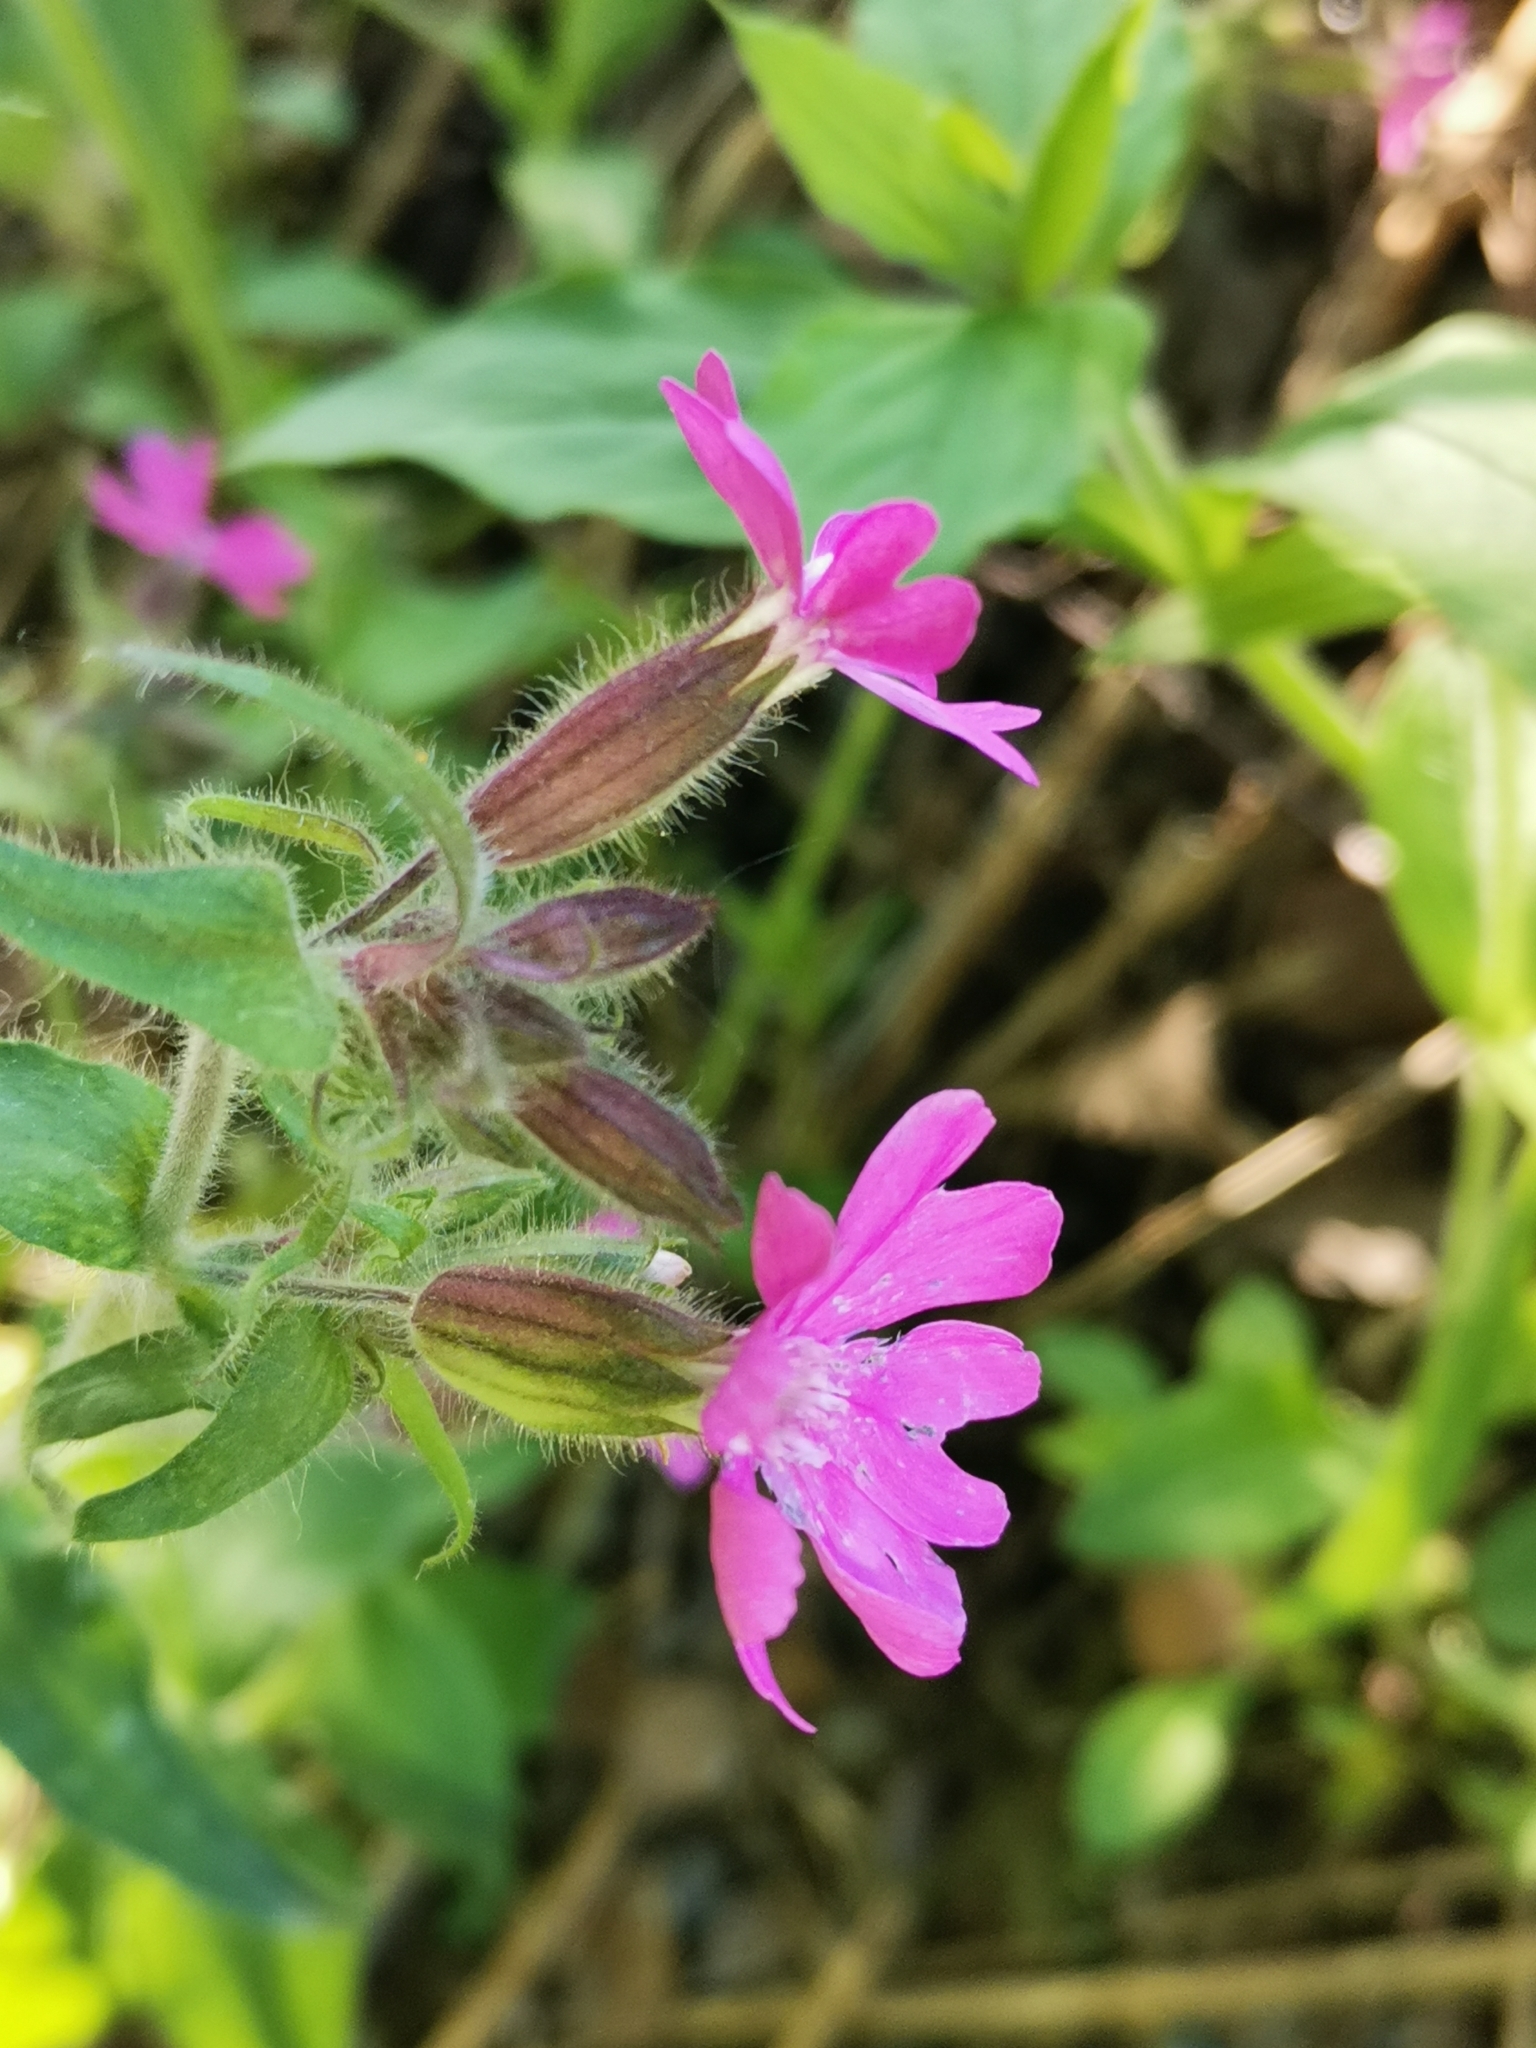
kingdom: Plantae
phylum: Tracheophyta
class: Magnoliopsida
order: Caryophyllales
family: Caryophyllaceae
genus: Silene
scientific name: Silene dioica
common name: Red campion
